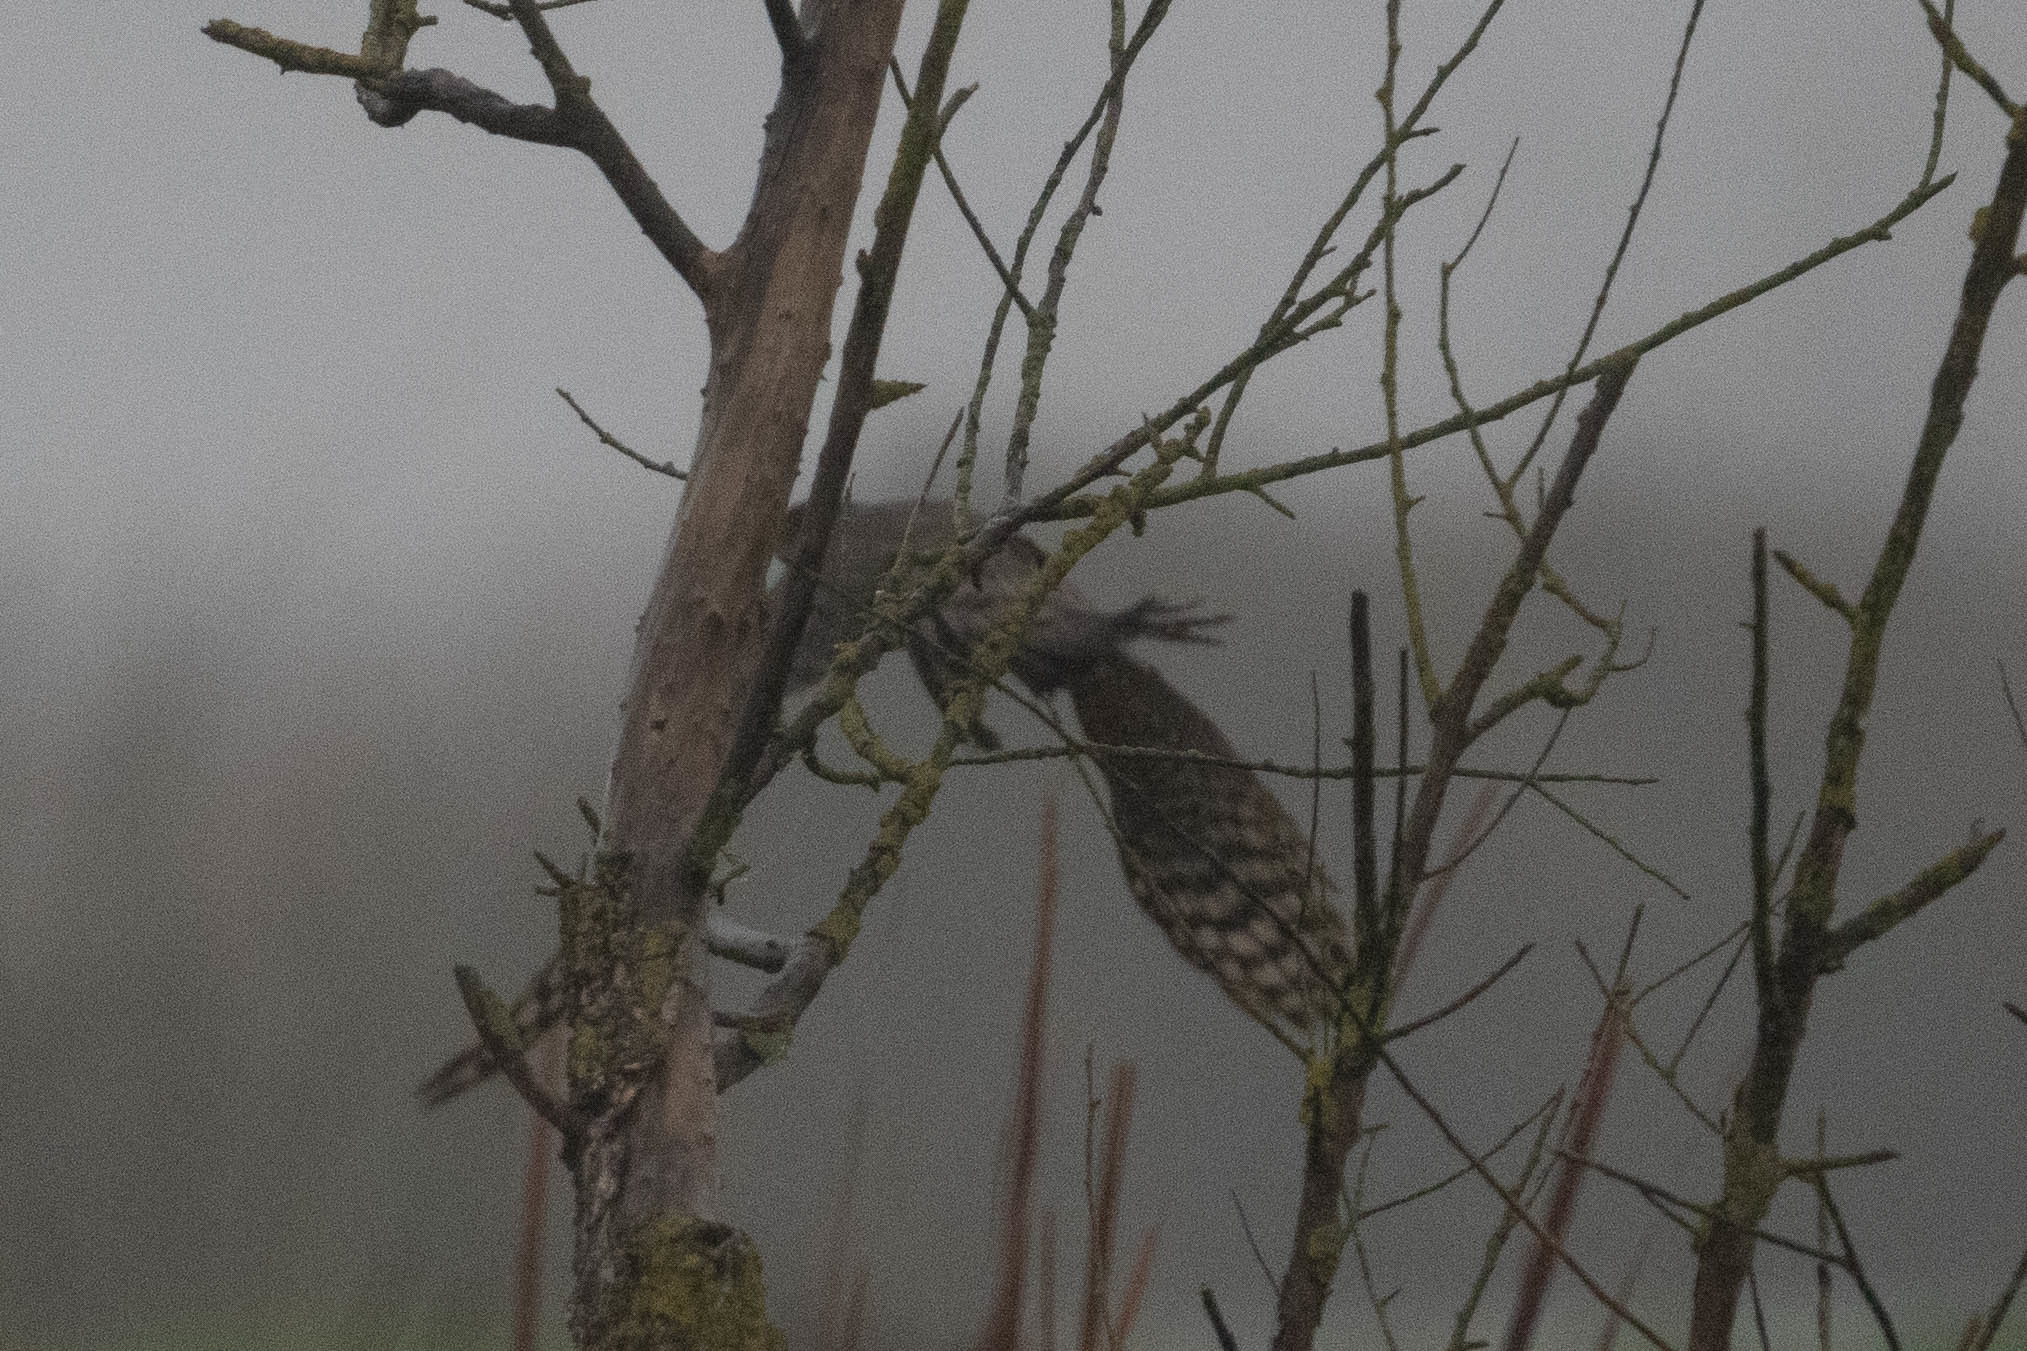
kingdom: Animalia
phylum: Chordata
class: Aves
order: Accipitriformes
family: Accipitridae
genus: Accipiter
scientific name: Accipiter cooperii
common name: Cooper's hawk
